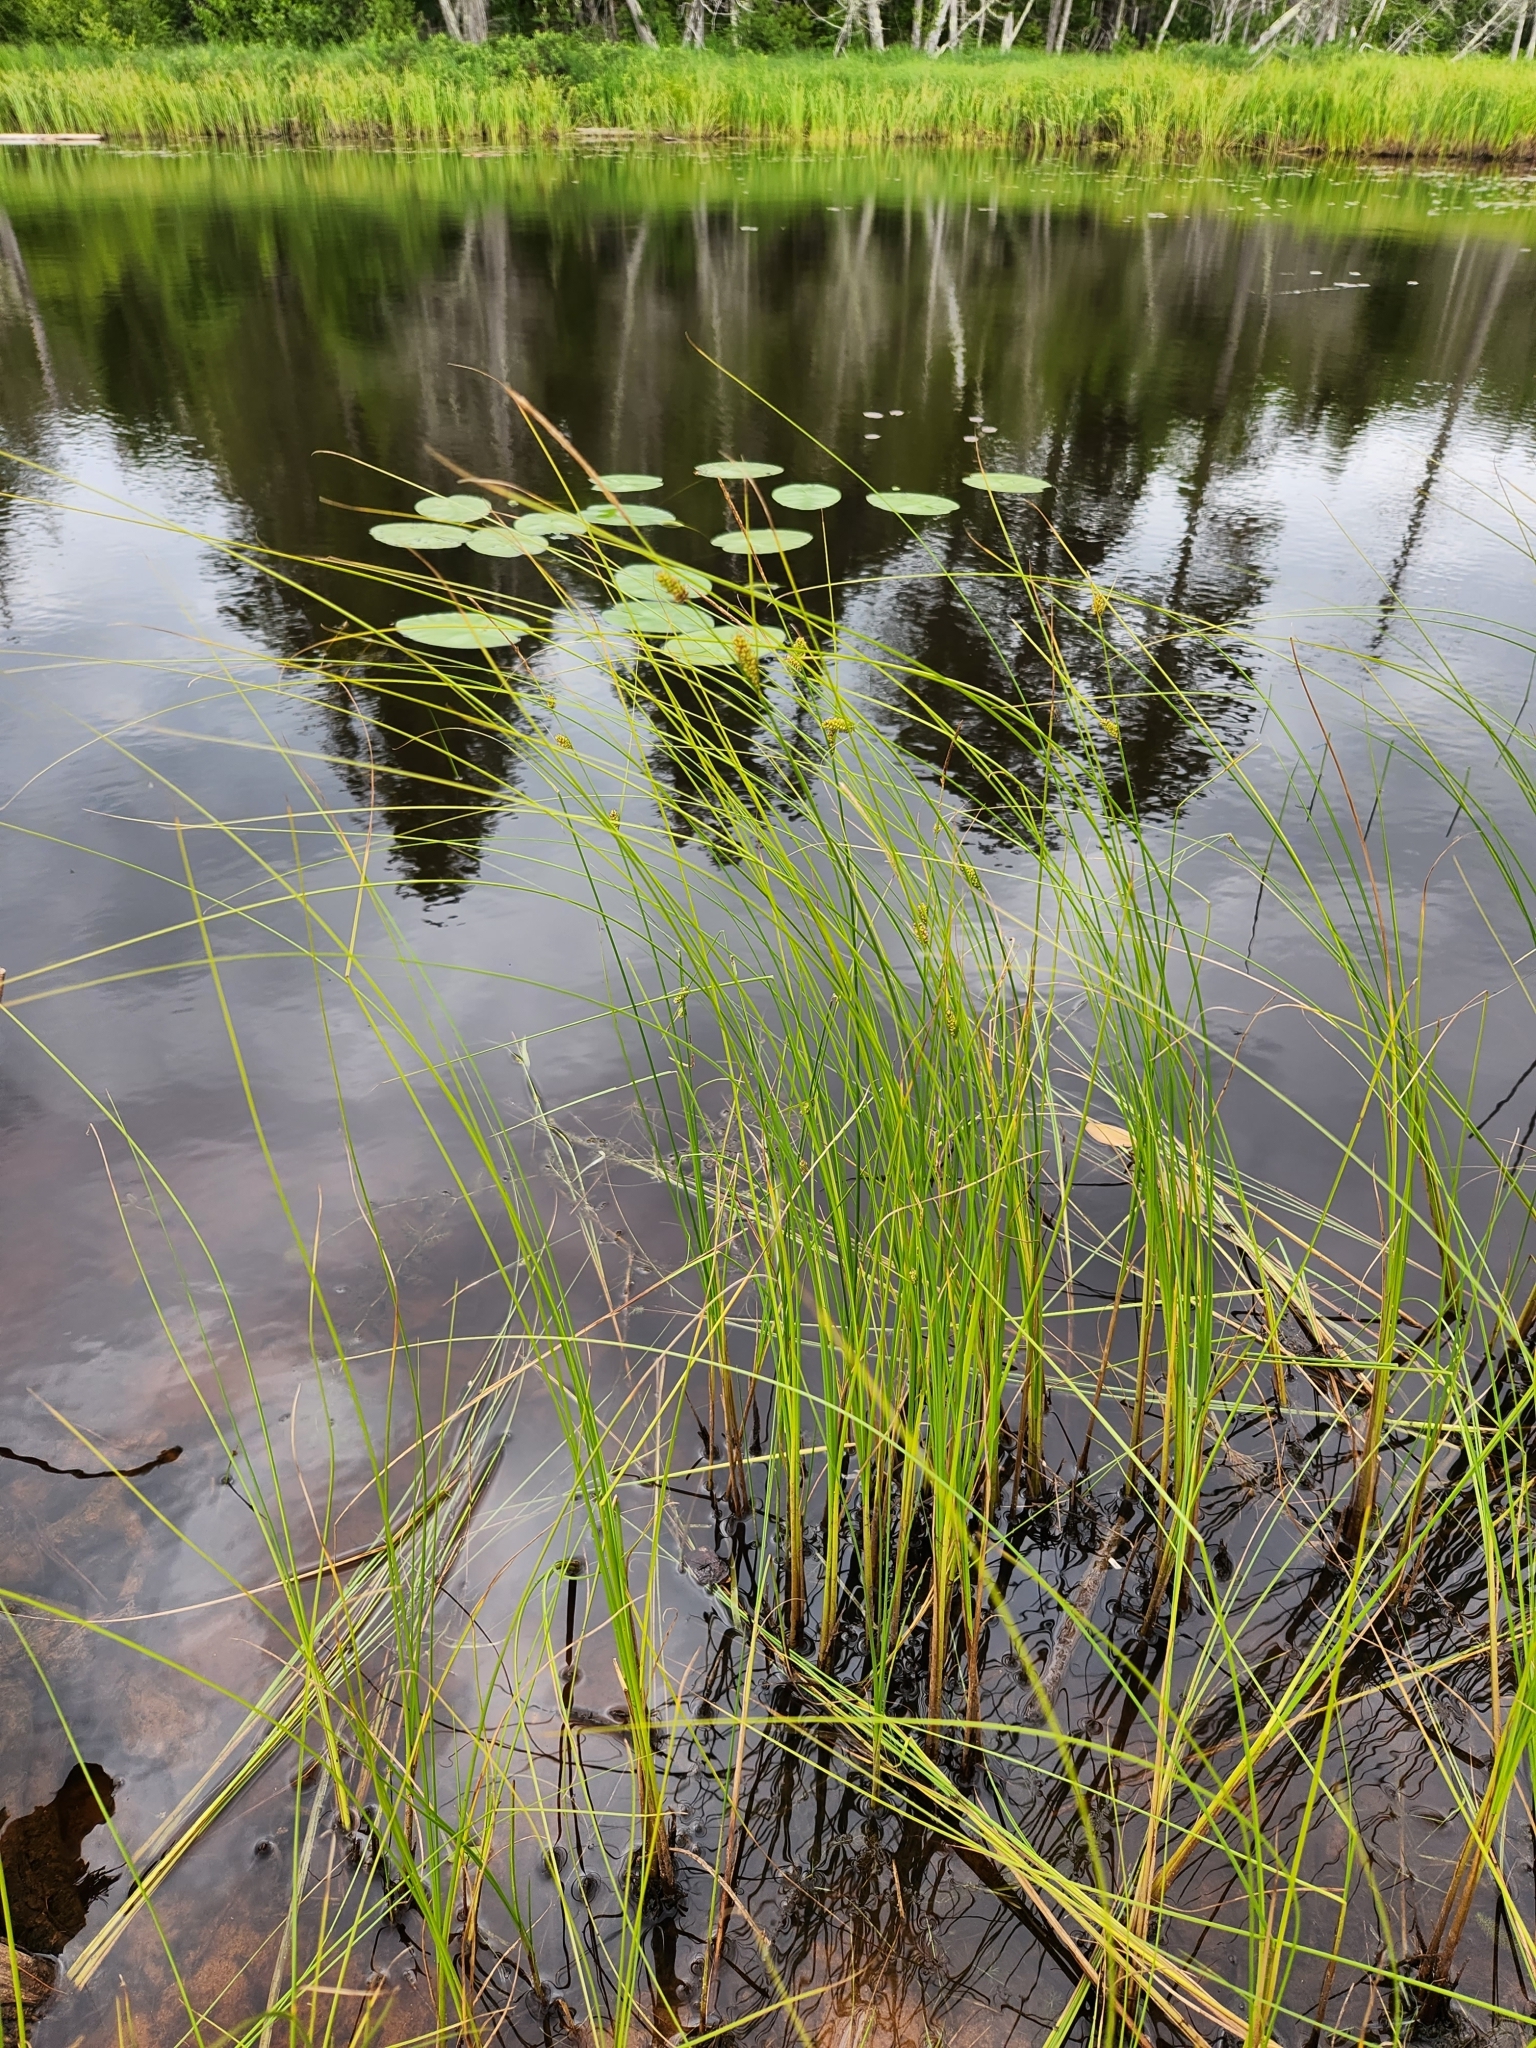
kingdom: Plantae
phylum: Tracheophyta
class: Liliopsida
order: Poales
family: Cyperaceae
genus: Carex
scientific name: Carex lasiocarpa
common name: Slender sedge
